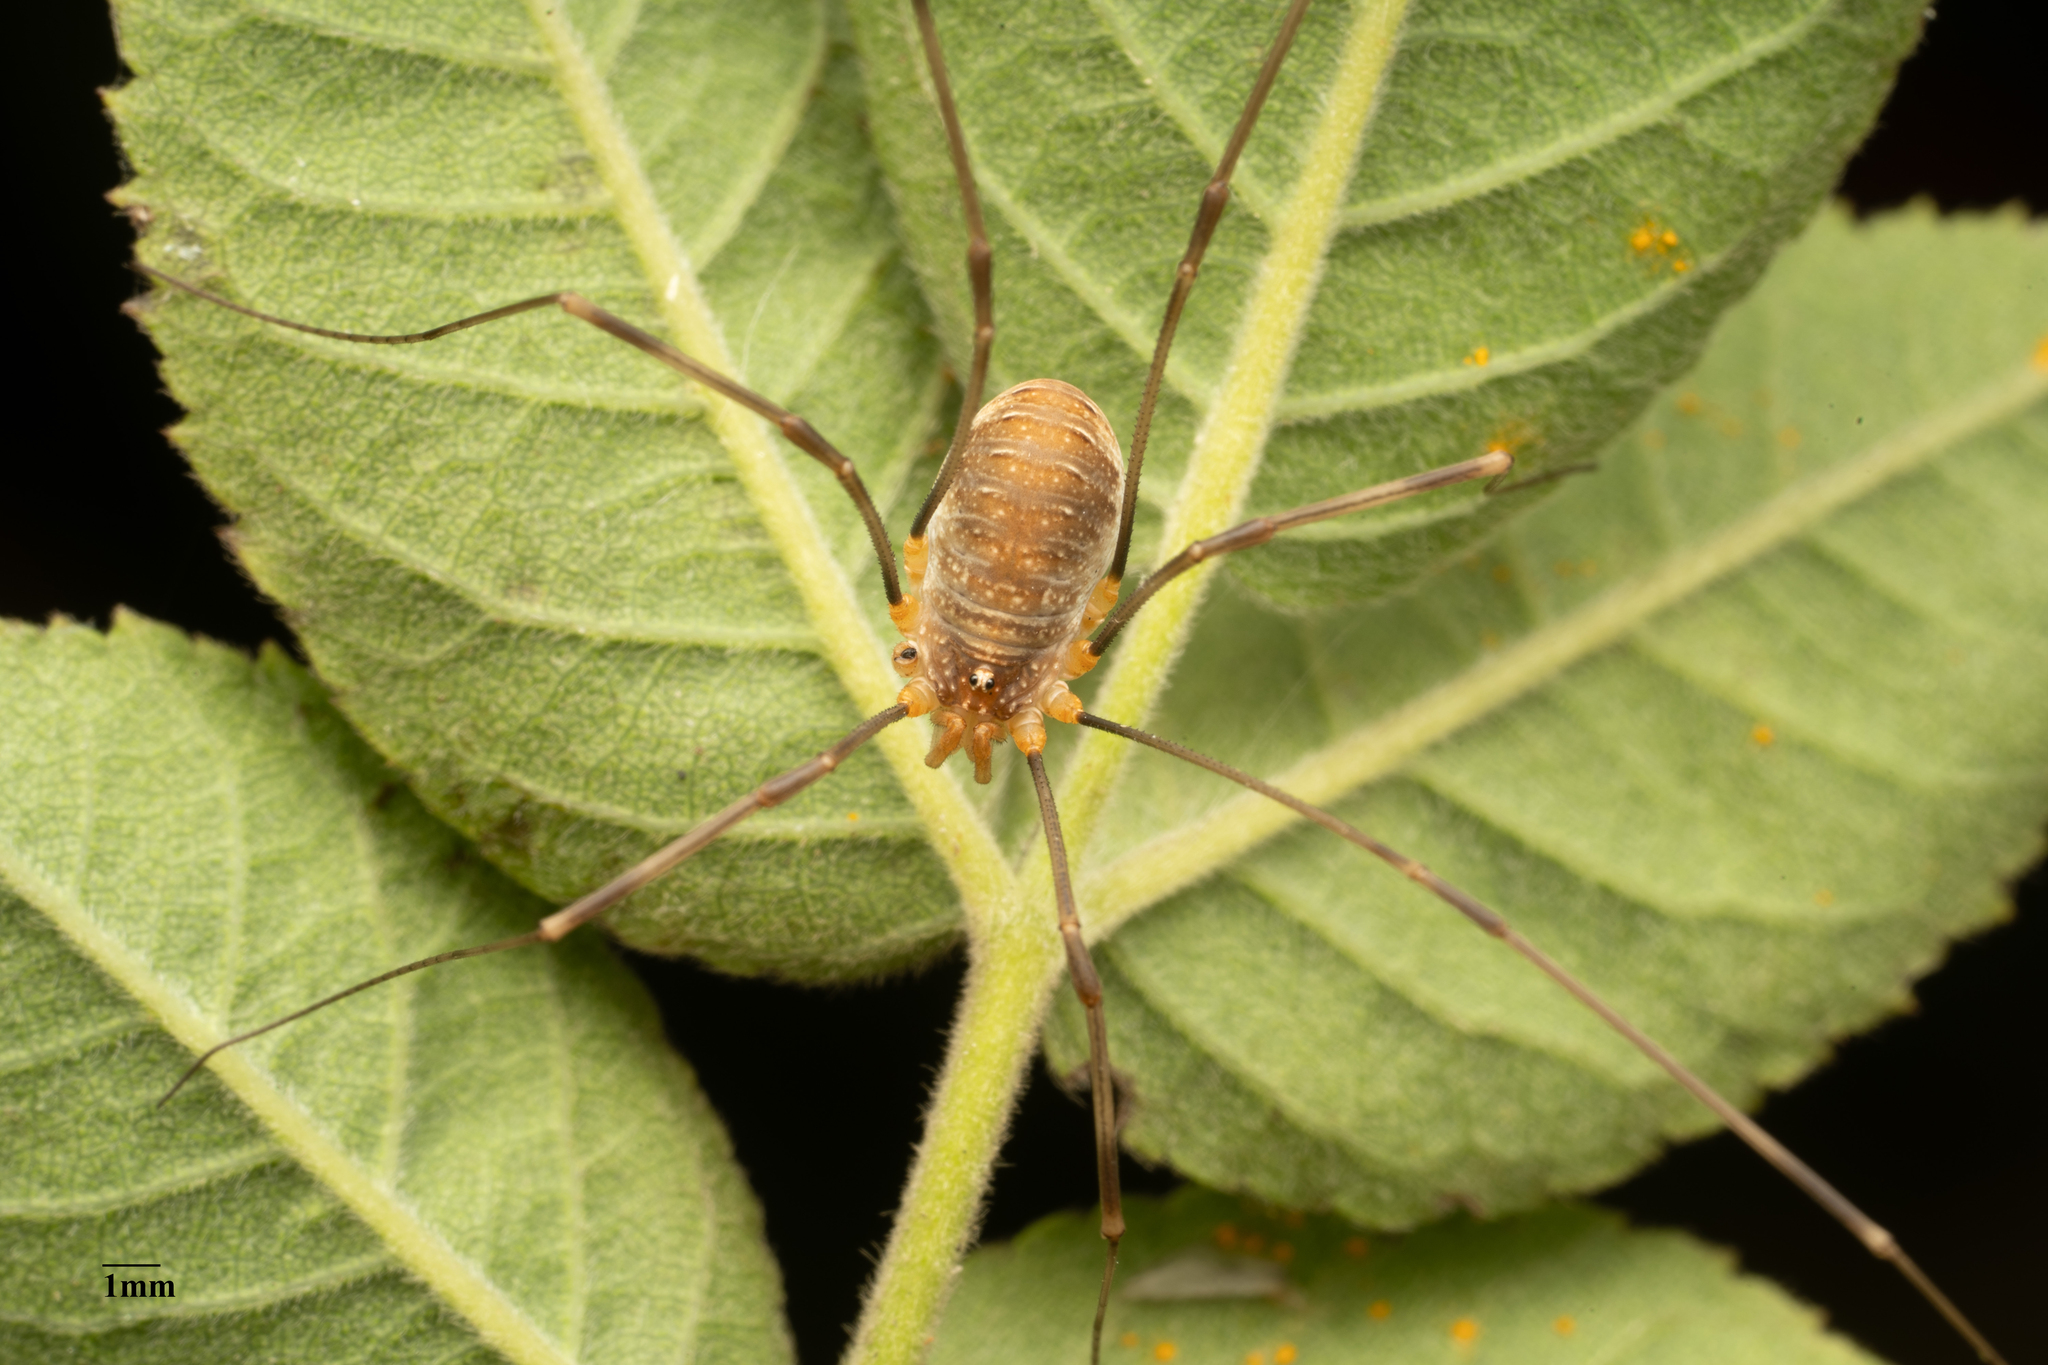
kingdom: Animalia
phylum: Arthropoda
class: Arachnida
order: Opiliones
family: Phalangiidae
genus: Opilio
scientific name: Opilio canestrinii
